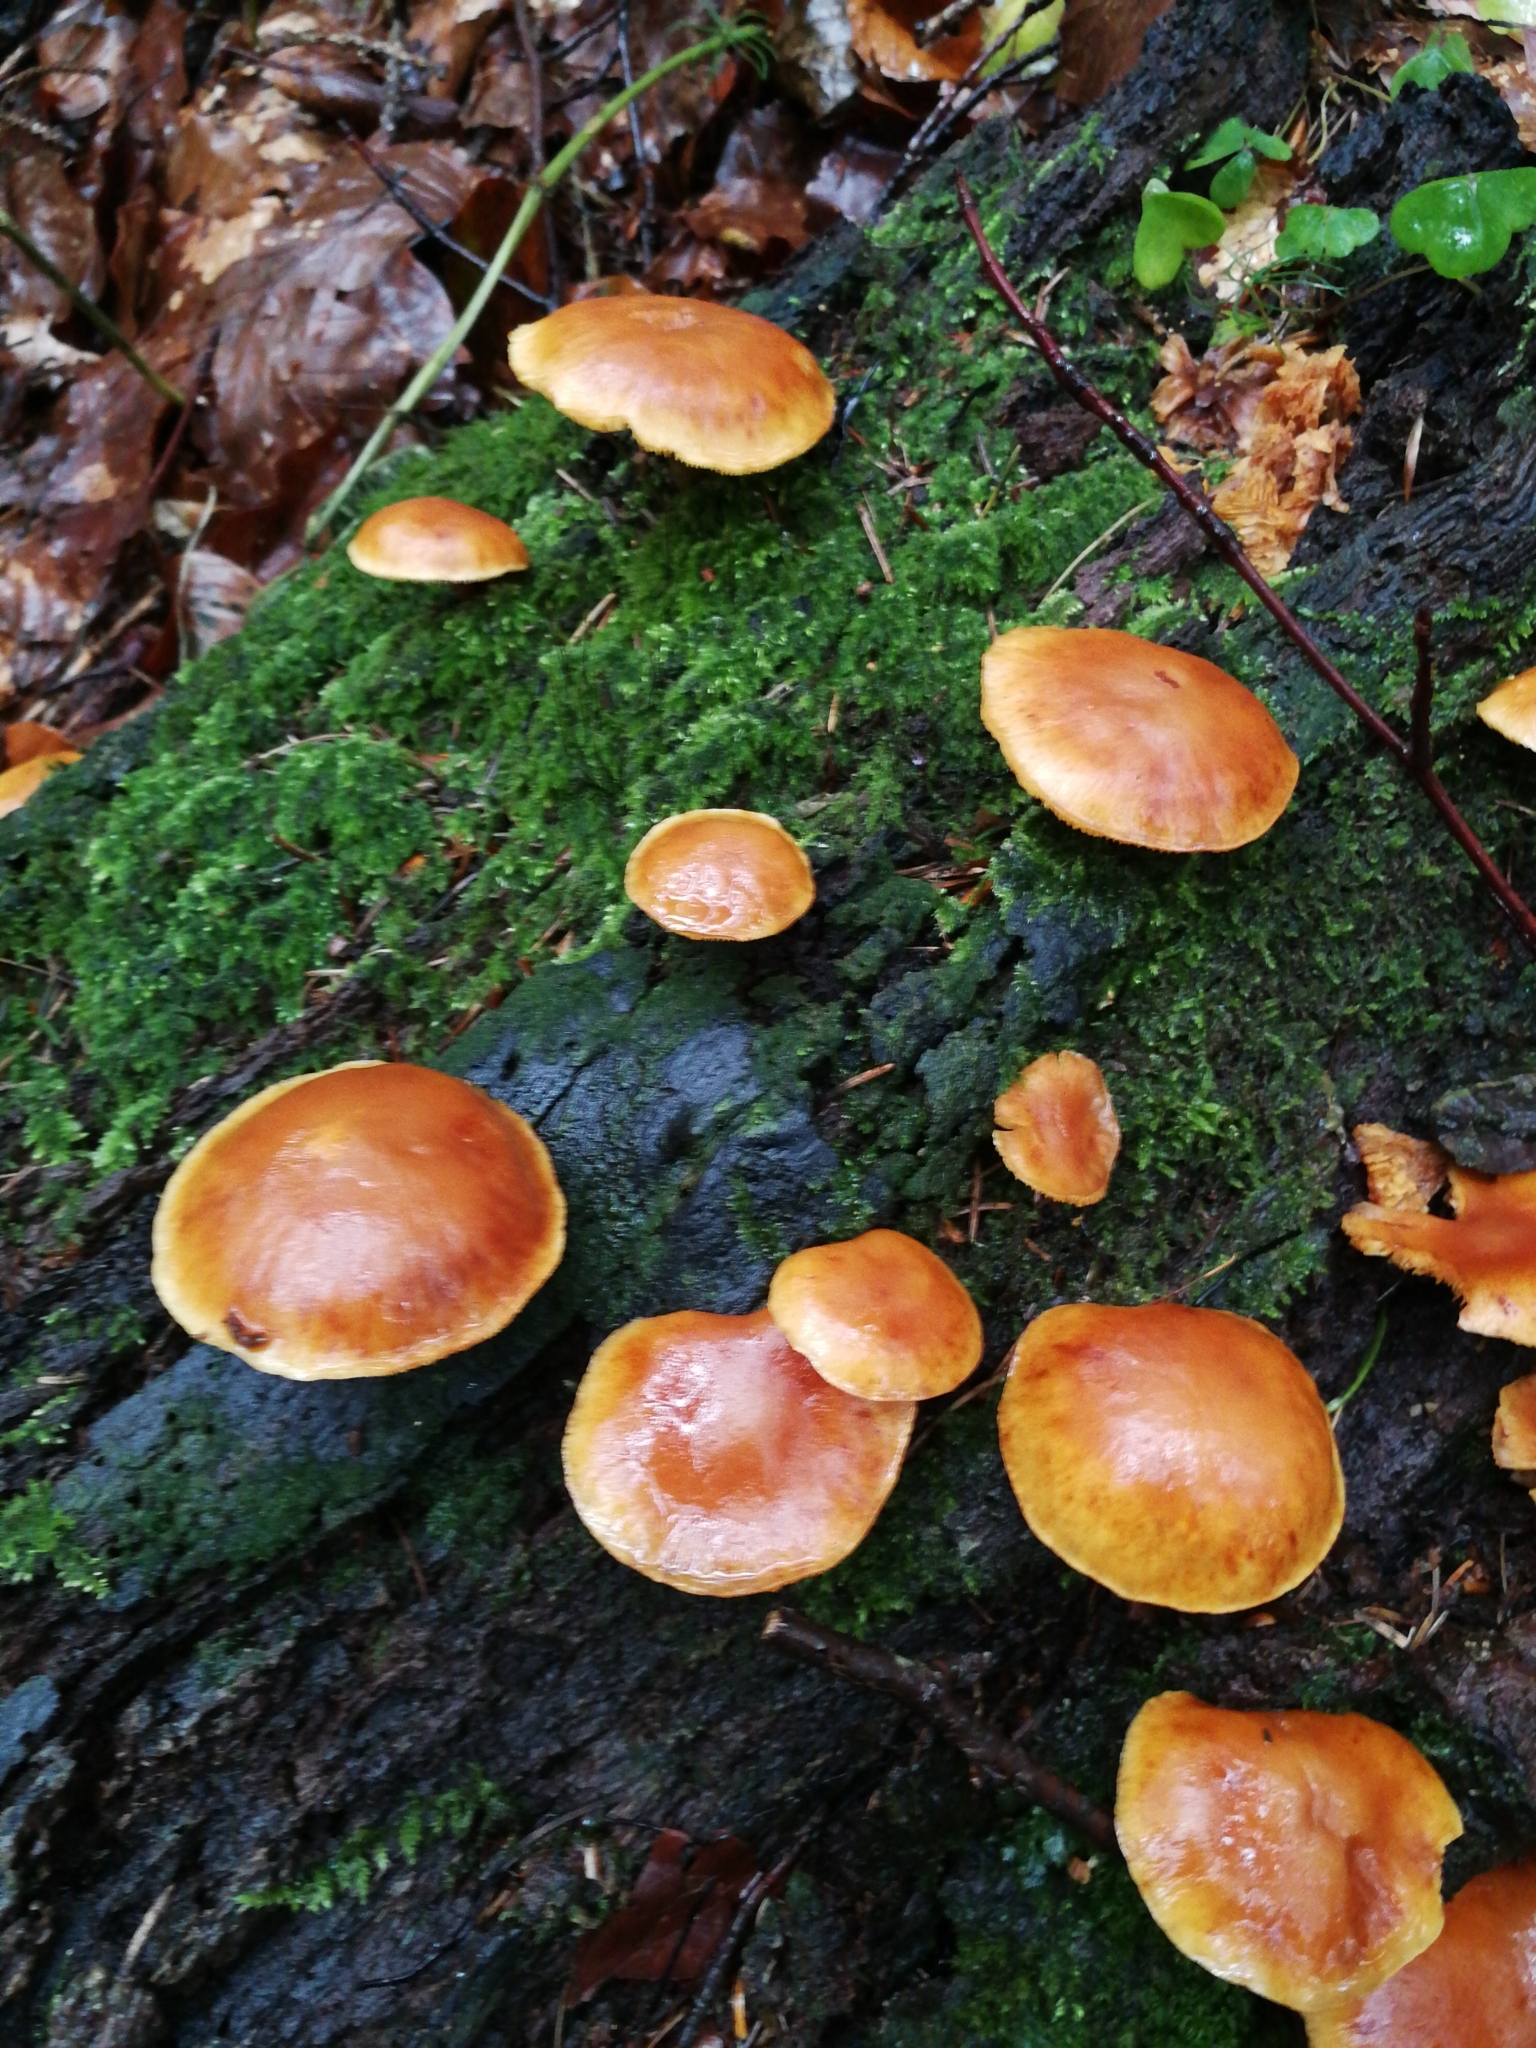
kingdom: Fungi
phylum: Basidiomycota
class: Agaricomycetes
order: Agaricales
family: Hymenogastraceae
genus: Gymnopilus
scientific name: Gymnopilus penetrans
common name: Common rustgill
